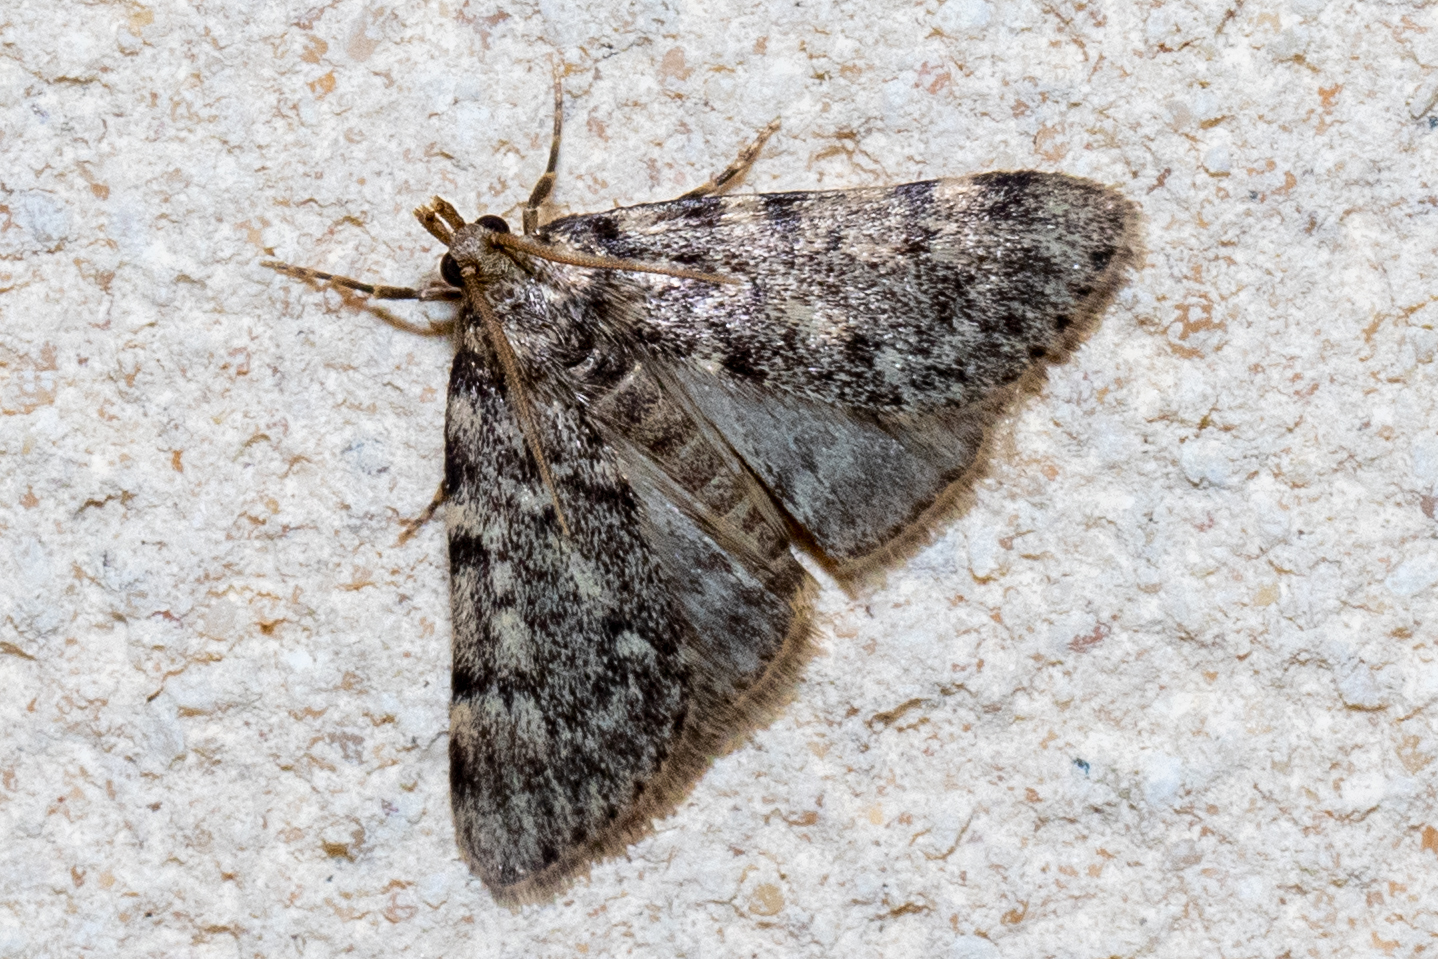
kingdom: Animalia
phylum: Arthropoda
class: Insecta
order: Lepidoptera
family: Pyralidae
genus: Aglossa
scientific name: Aglossa pinguinalis
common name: Large tabby
